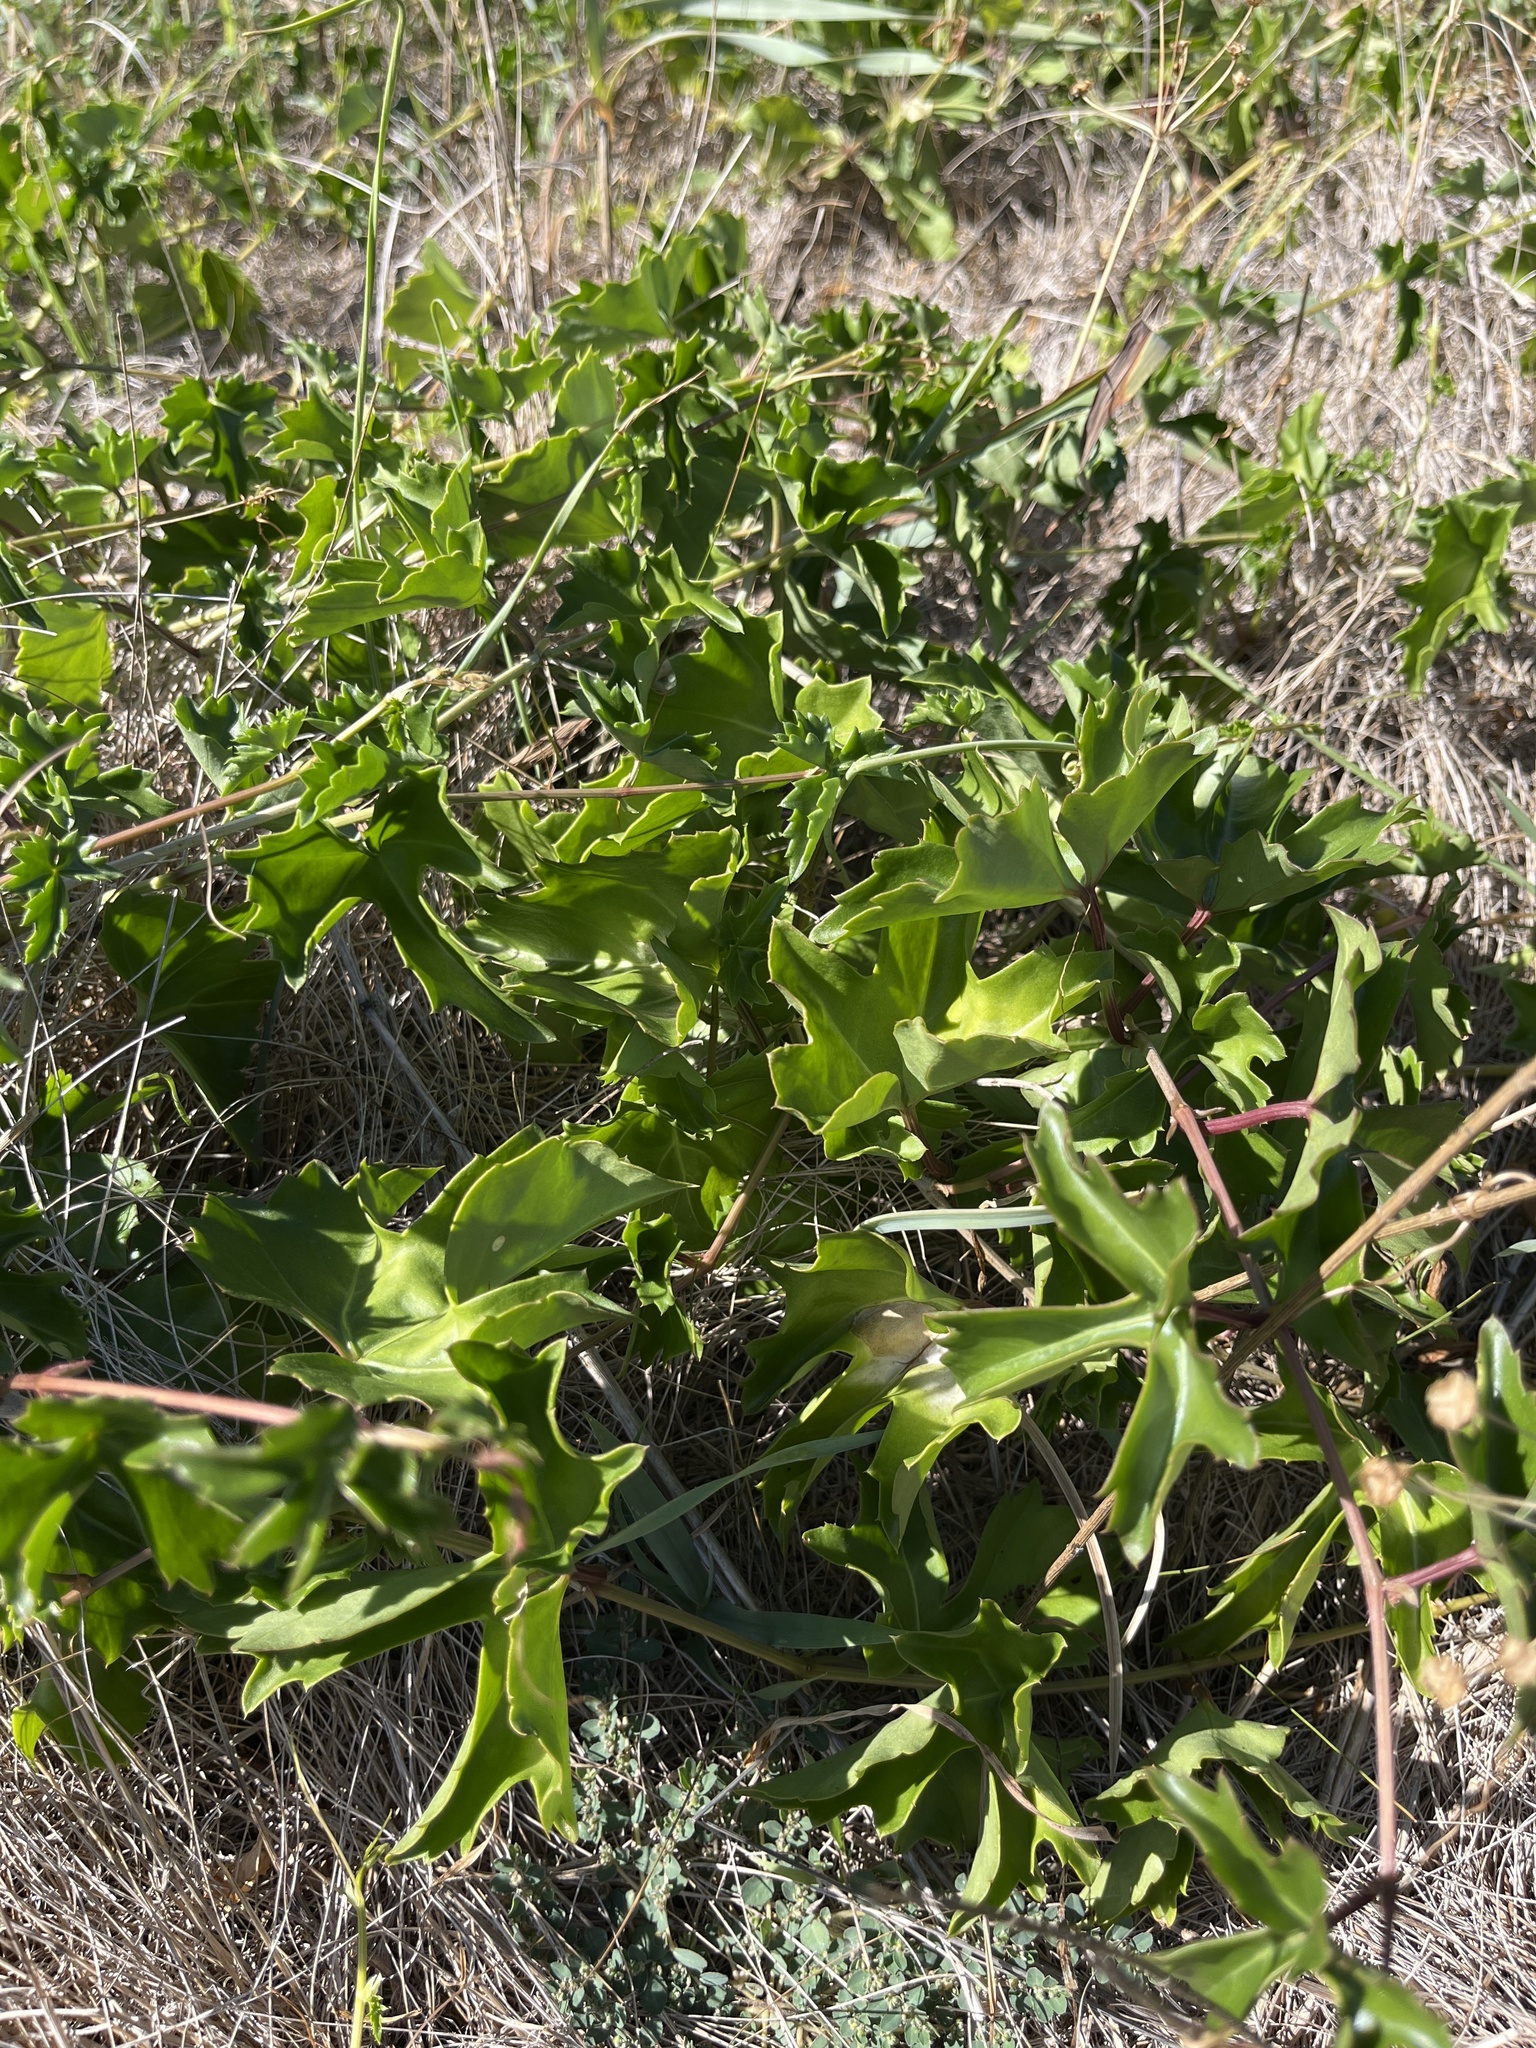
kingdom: Plantae
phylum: Tracheophyta
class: Magnoliopsida
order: Vitales
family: Vitaceae
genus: Cissus
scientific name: Cissus trifoliata
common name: Vine-sorrel
